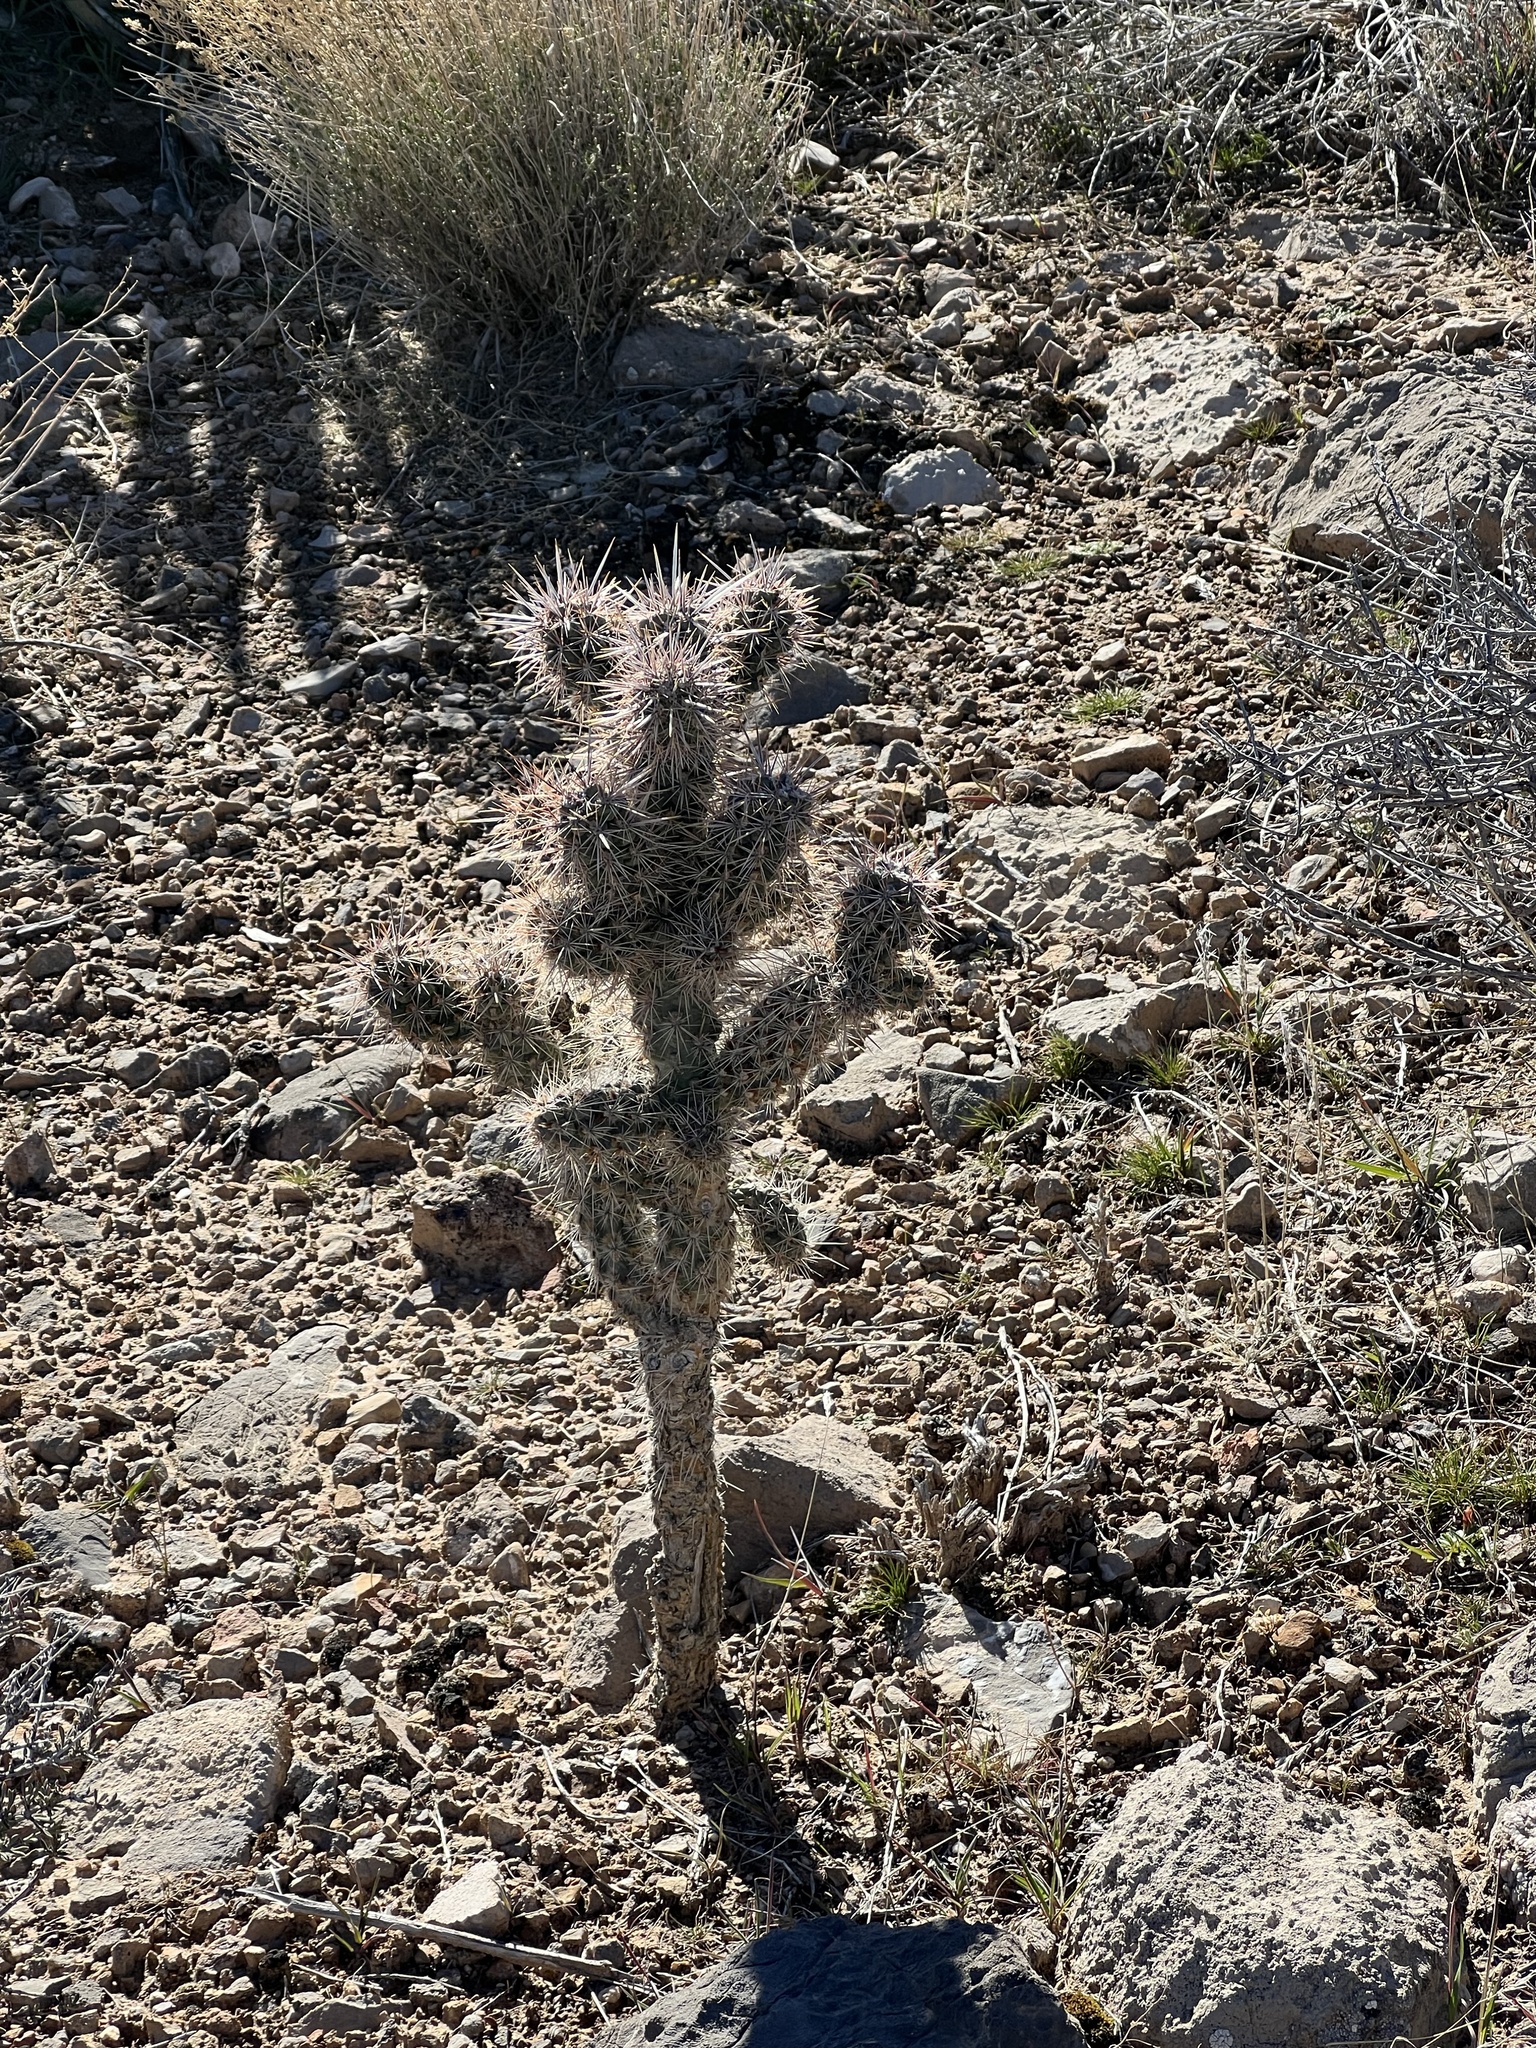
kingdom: Plantae
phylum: Tracheophyta
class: Magnoliopsida
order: Caryophyllales
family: Cactaceae
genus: Cylindropuntia
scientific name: Cylindropuntia echinocarpa
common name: Ground cholla
